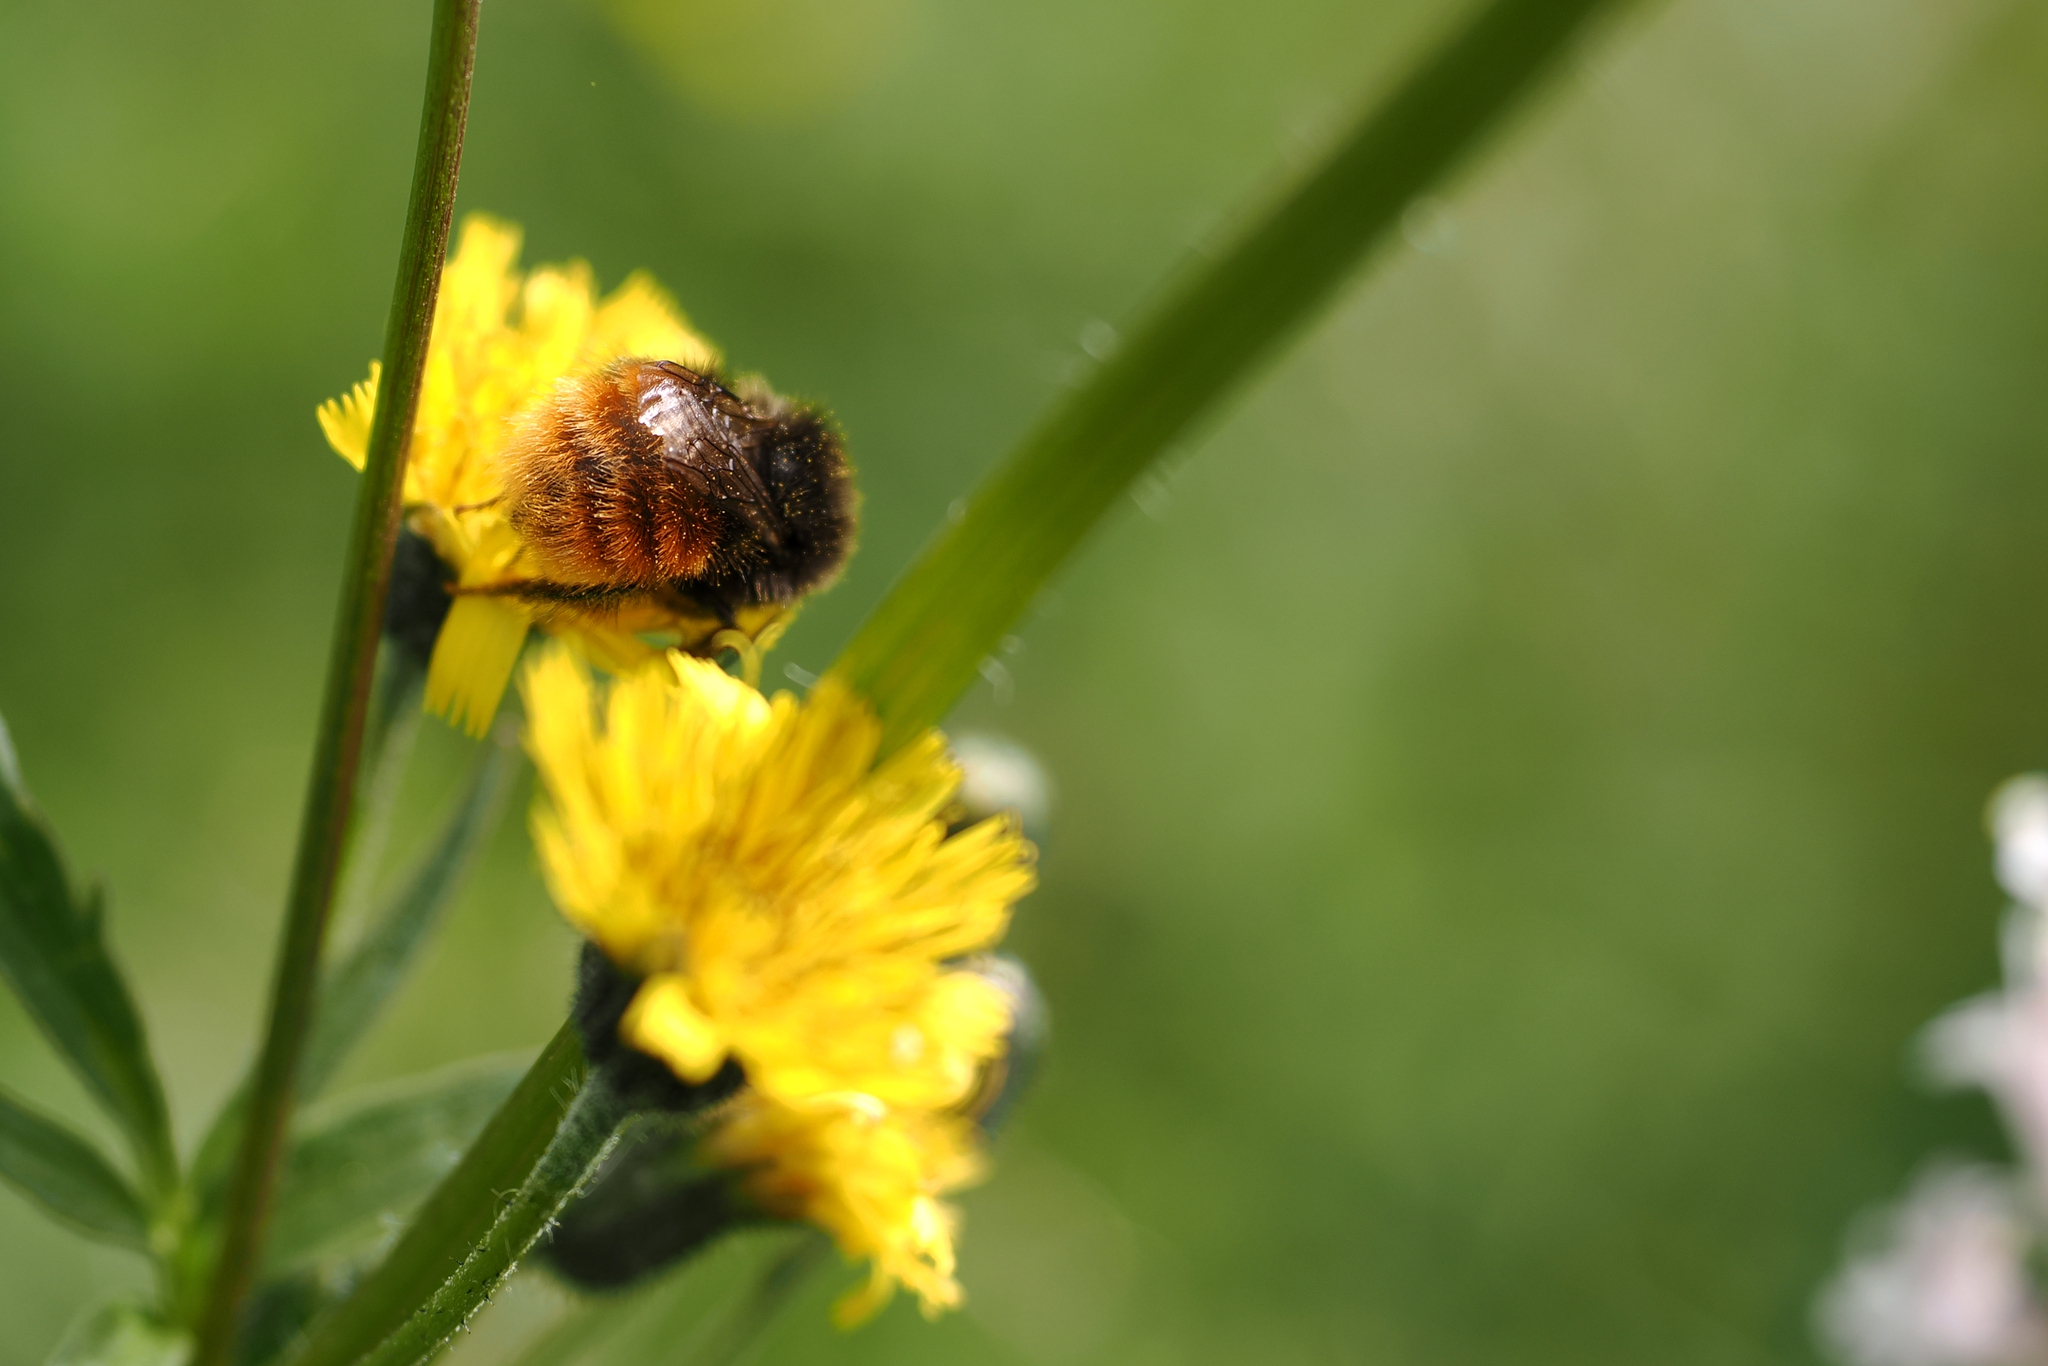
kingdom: Animalia
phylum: Arthropoda
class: Insecta
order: Hymenoptera
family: Apidae
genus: Bombus
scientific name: Bombus alpinus
